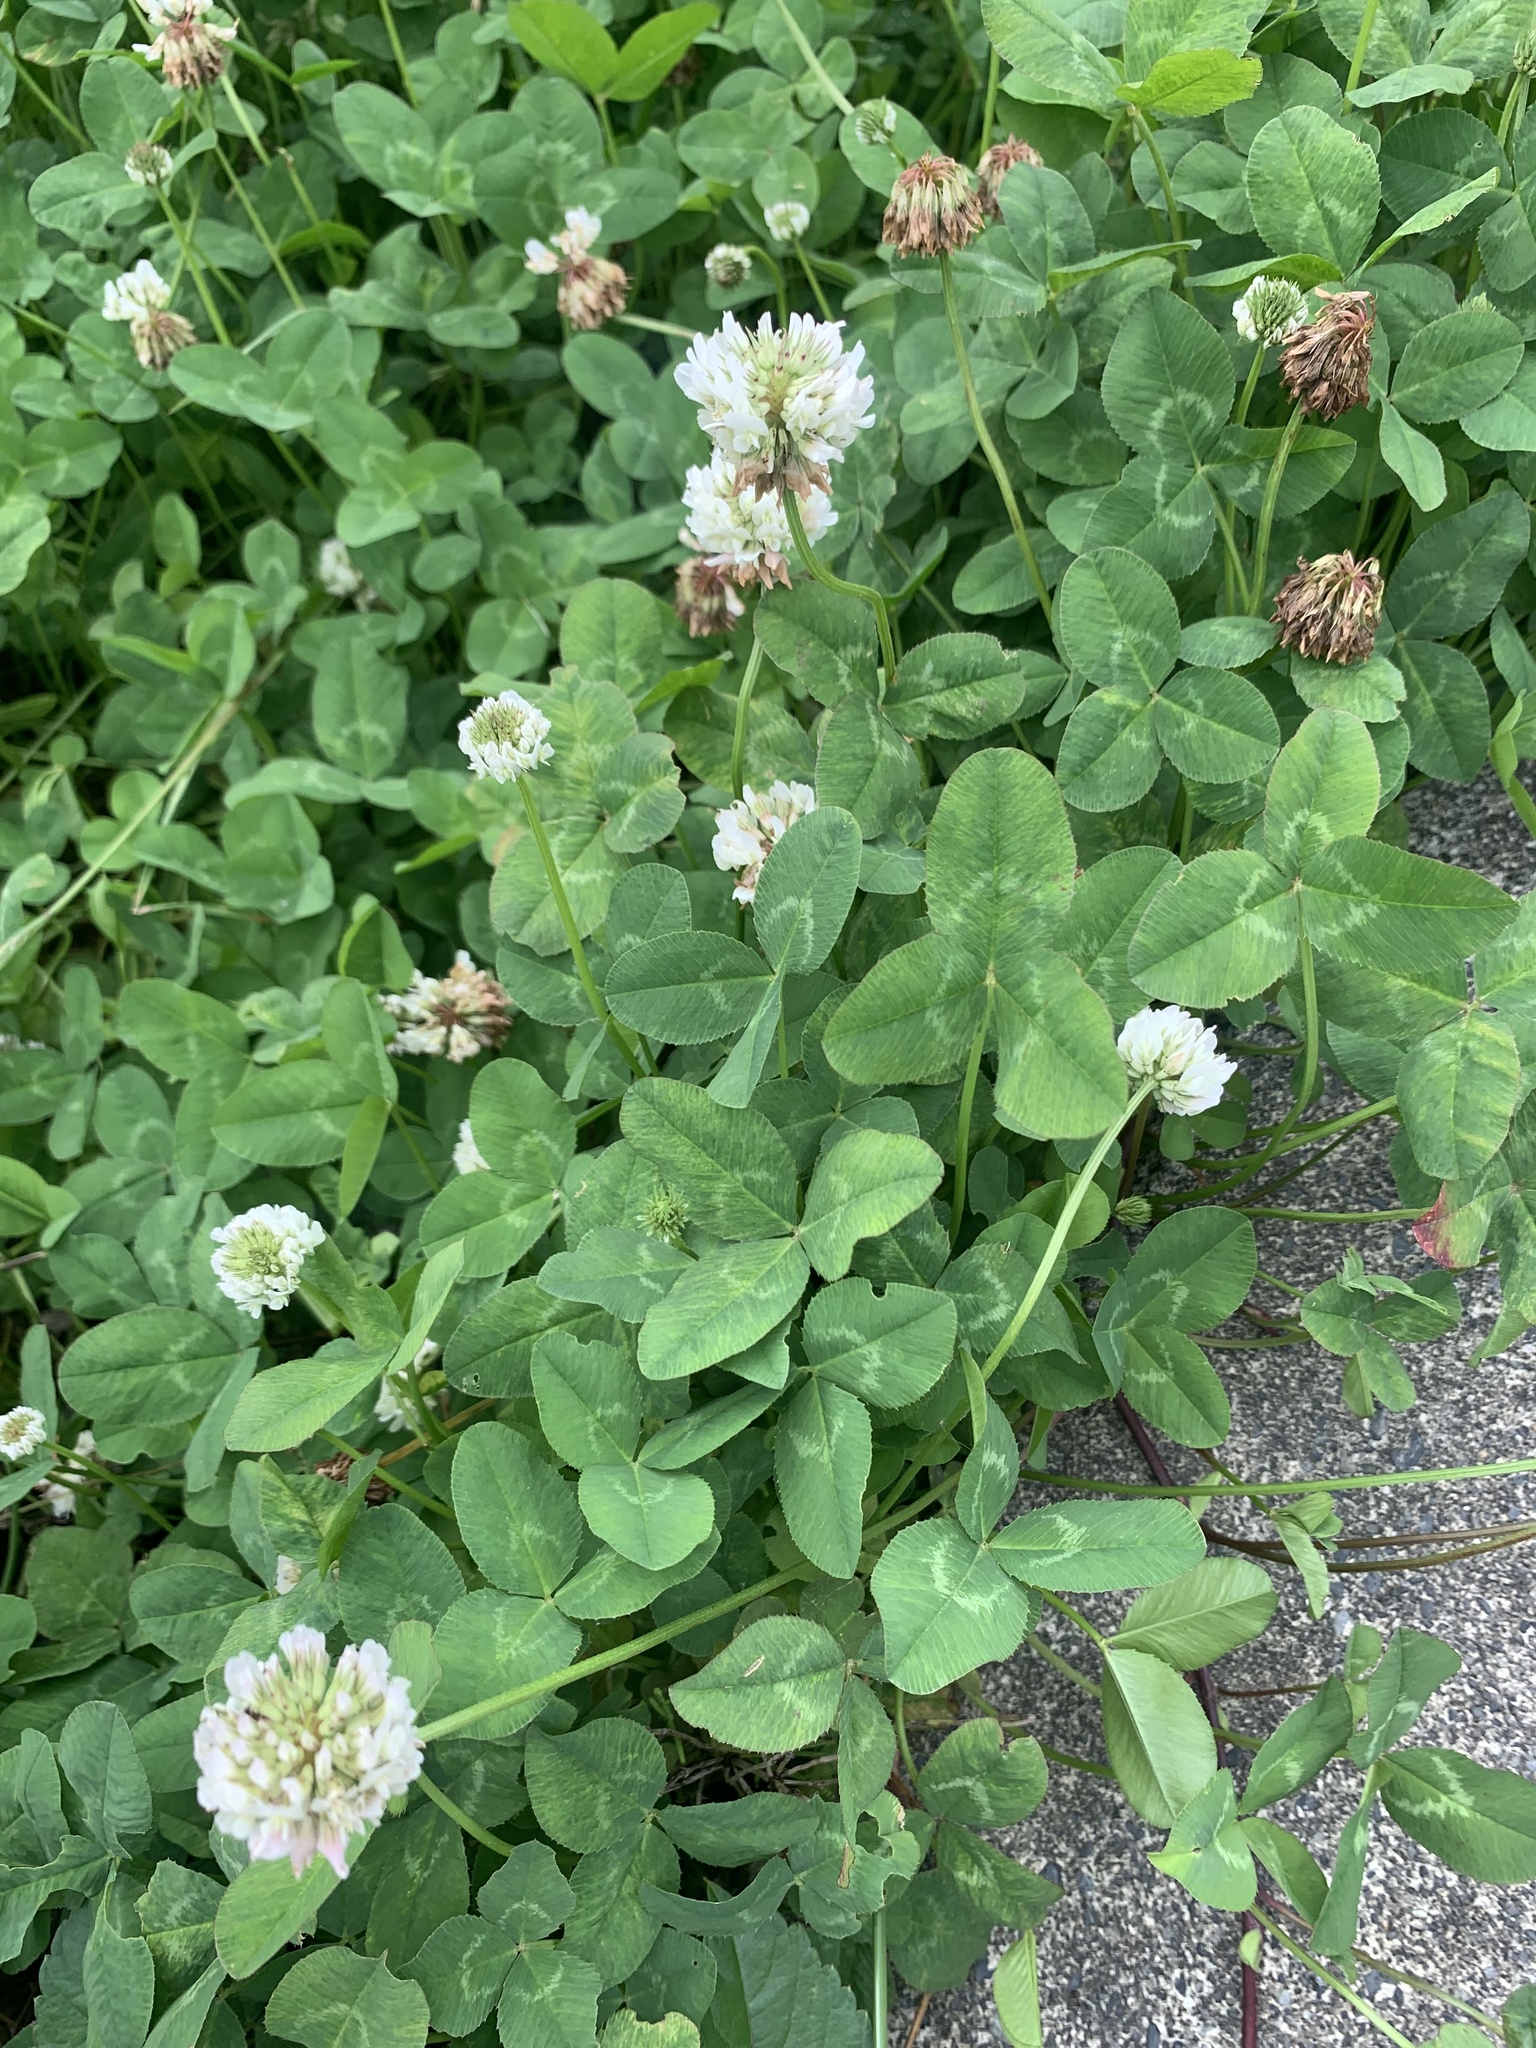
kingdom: Plantae
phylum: Tracheophyta
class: Magnoliopsida
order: Fabales
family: Fabaceae
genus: Trifolium
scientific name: Trifolium repens
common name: White clover
